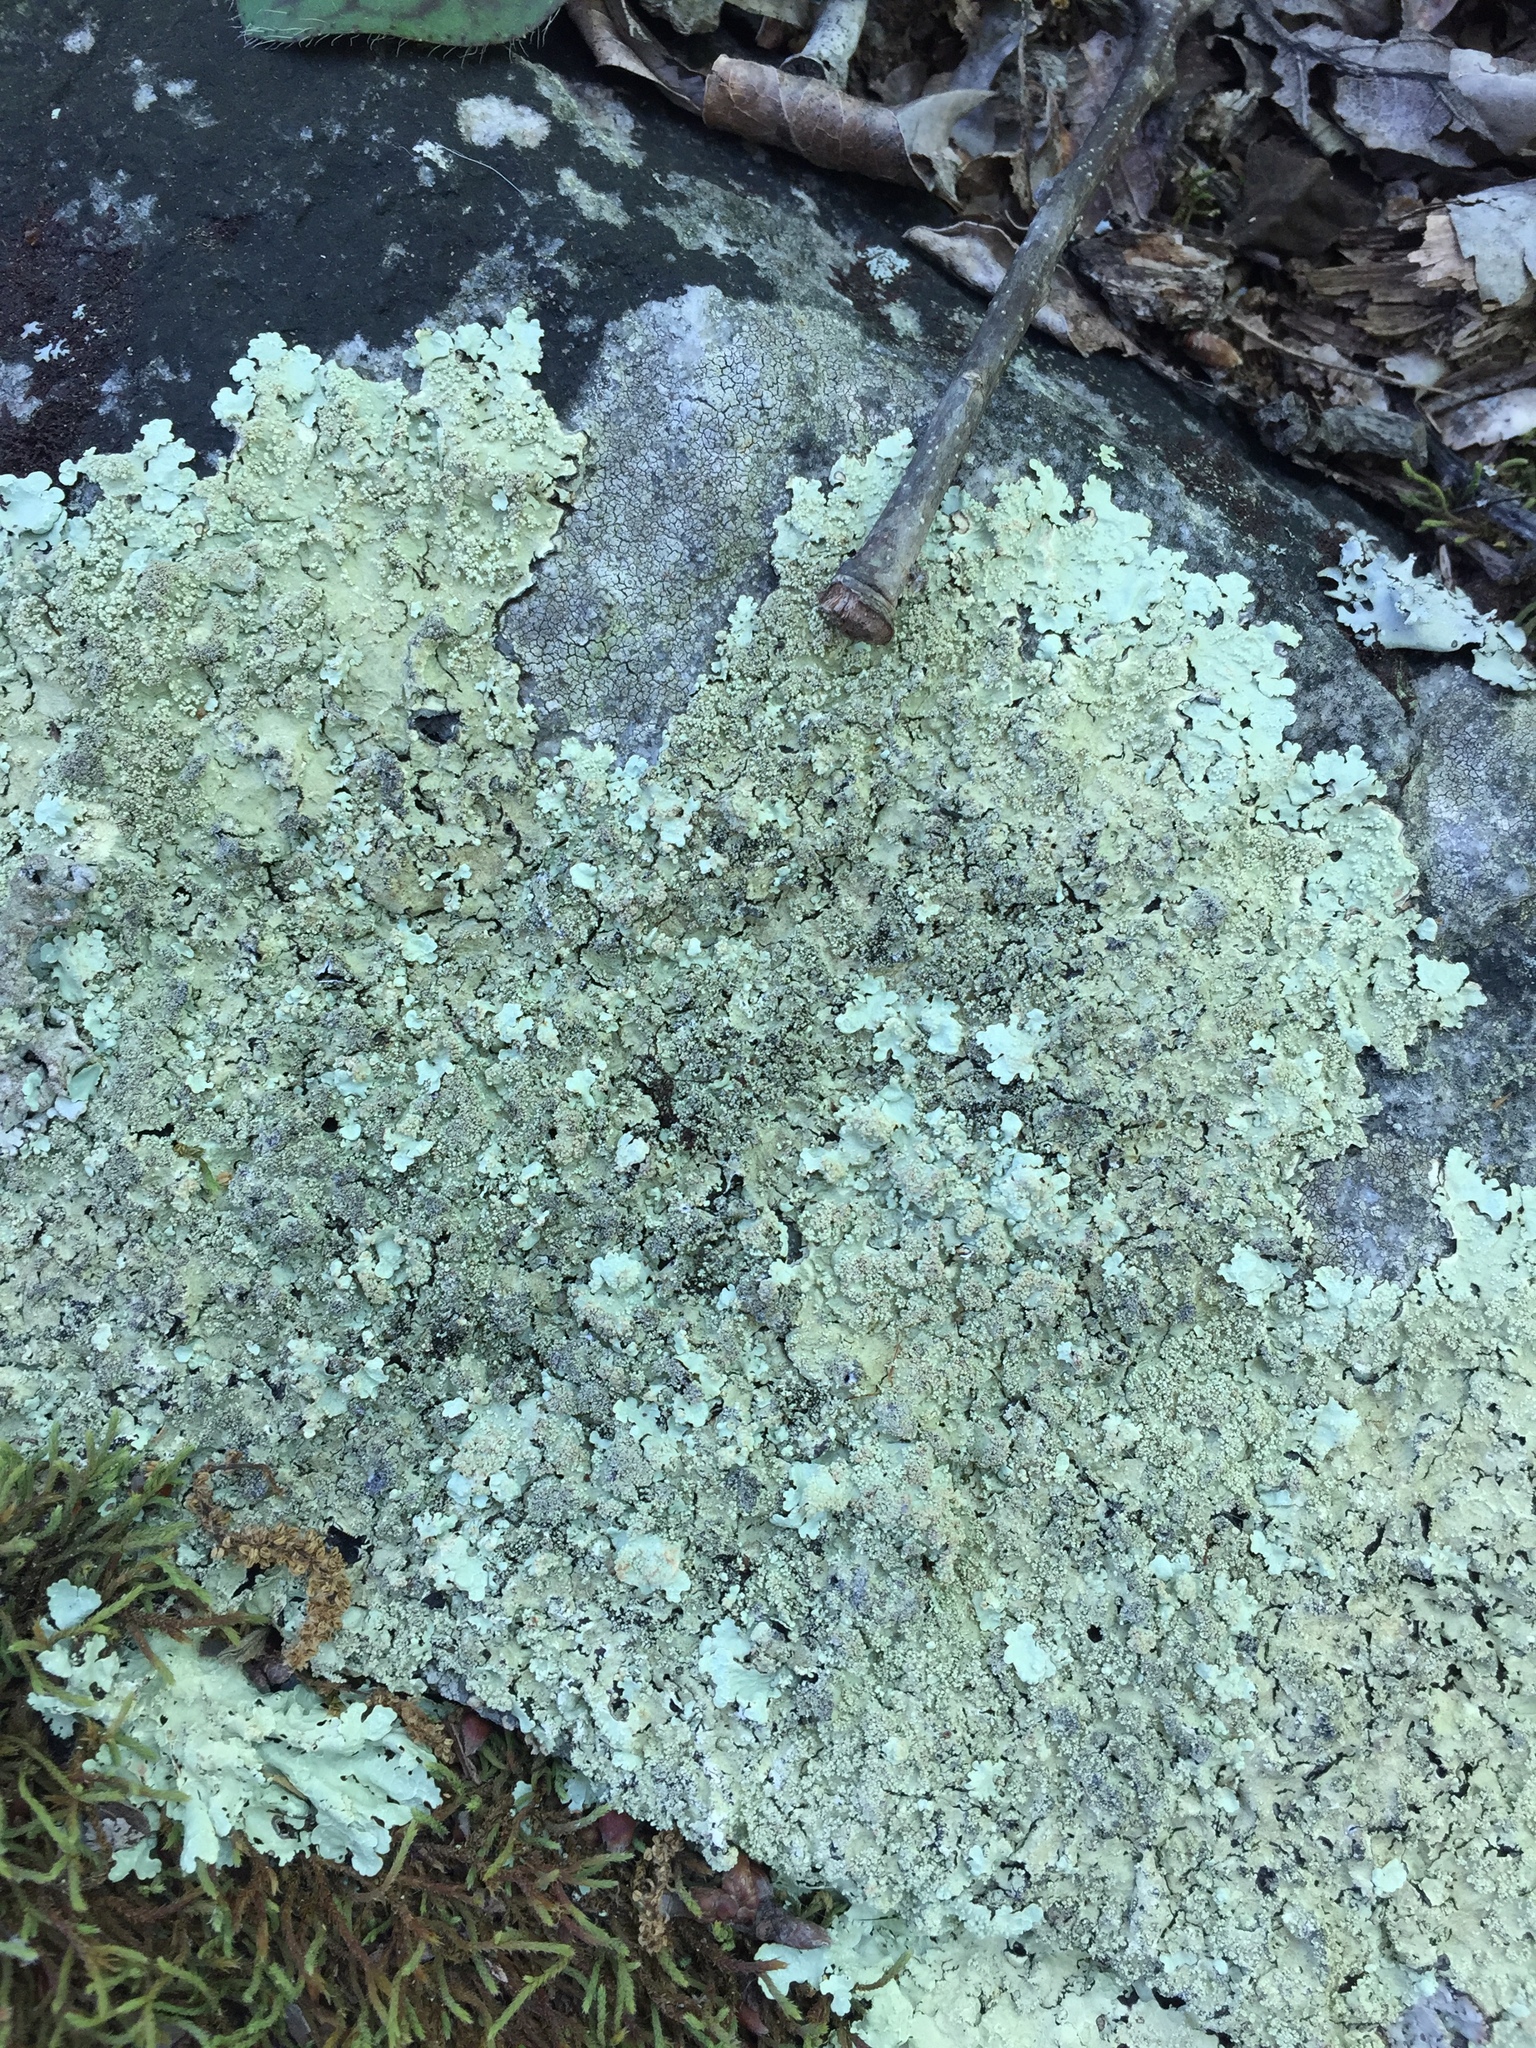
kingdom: Fungi
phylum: Ascomycota
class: Lecanoromycetes
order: Lecanorales
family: Parmeliaceae
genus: Flavoparmelia
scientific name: Flavoparmelia baltimorensis
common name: Rock greenshield
